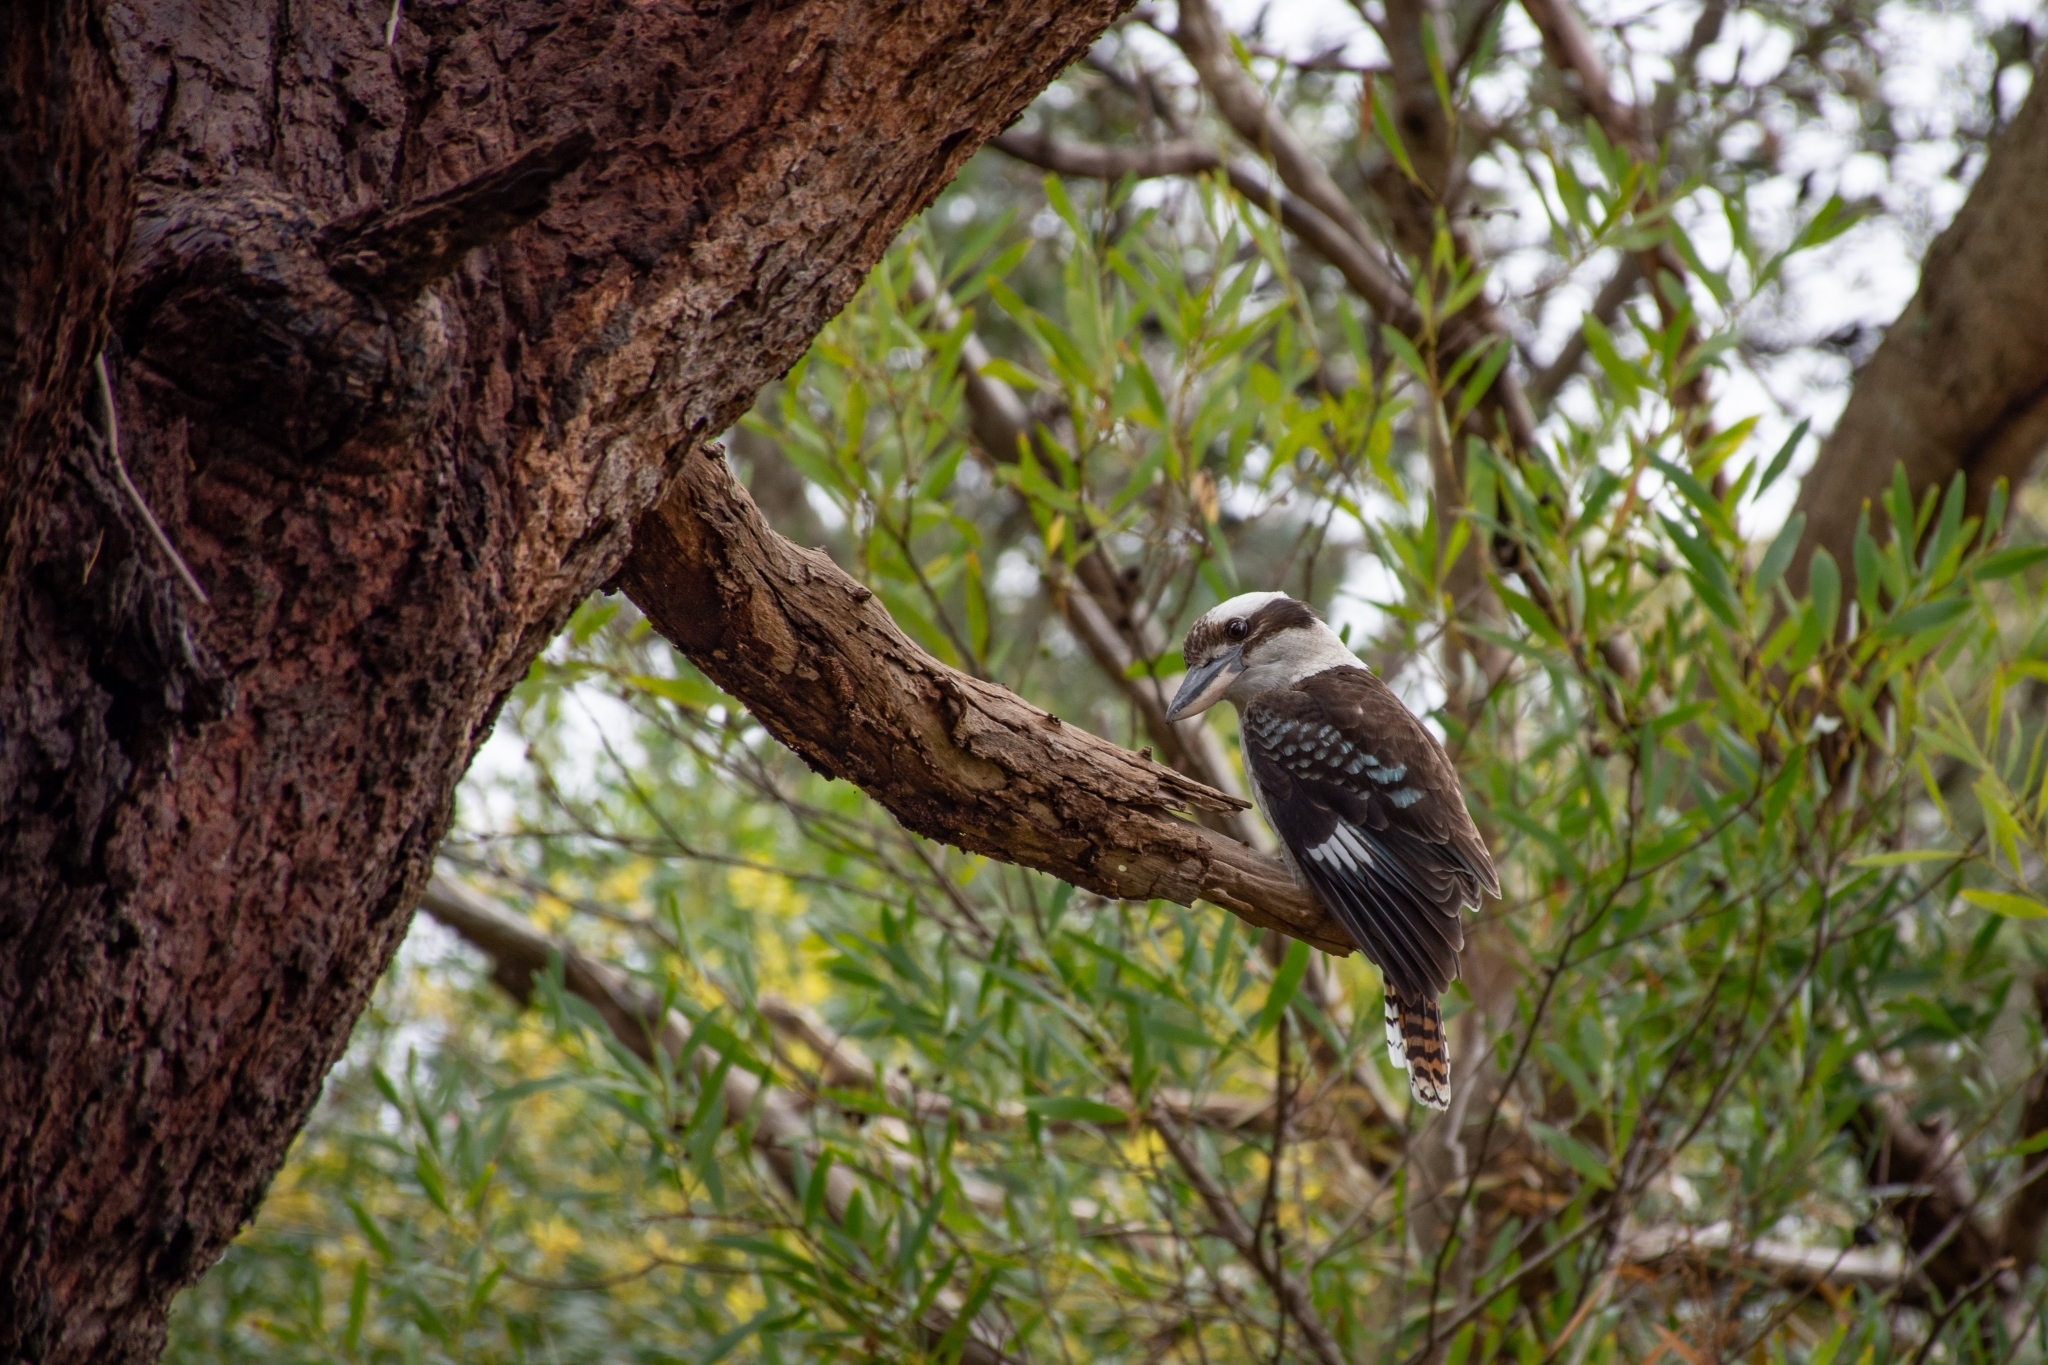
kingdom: Animalia
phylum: Chordata
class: Aves
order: Coraciiformes
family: Alcedinidae
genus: Dacelo
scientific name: Dacelo novaeguineae
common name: Laughing kookaburra
